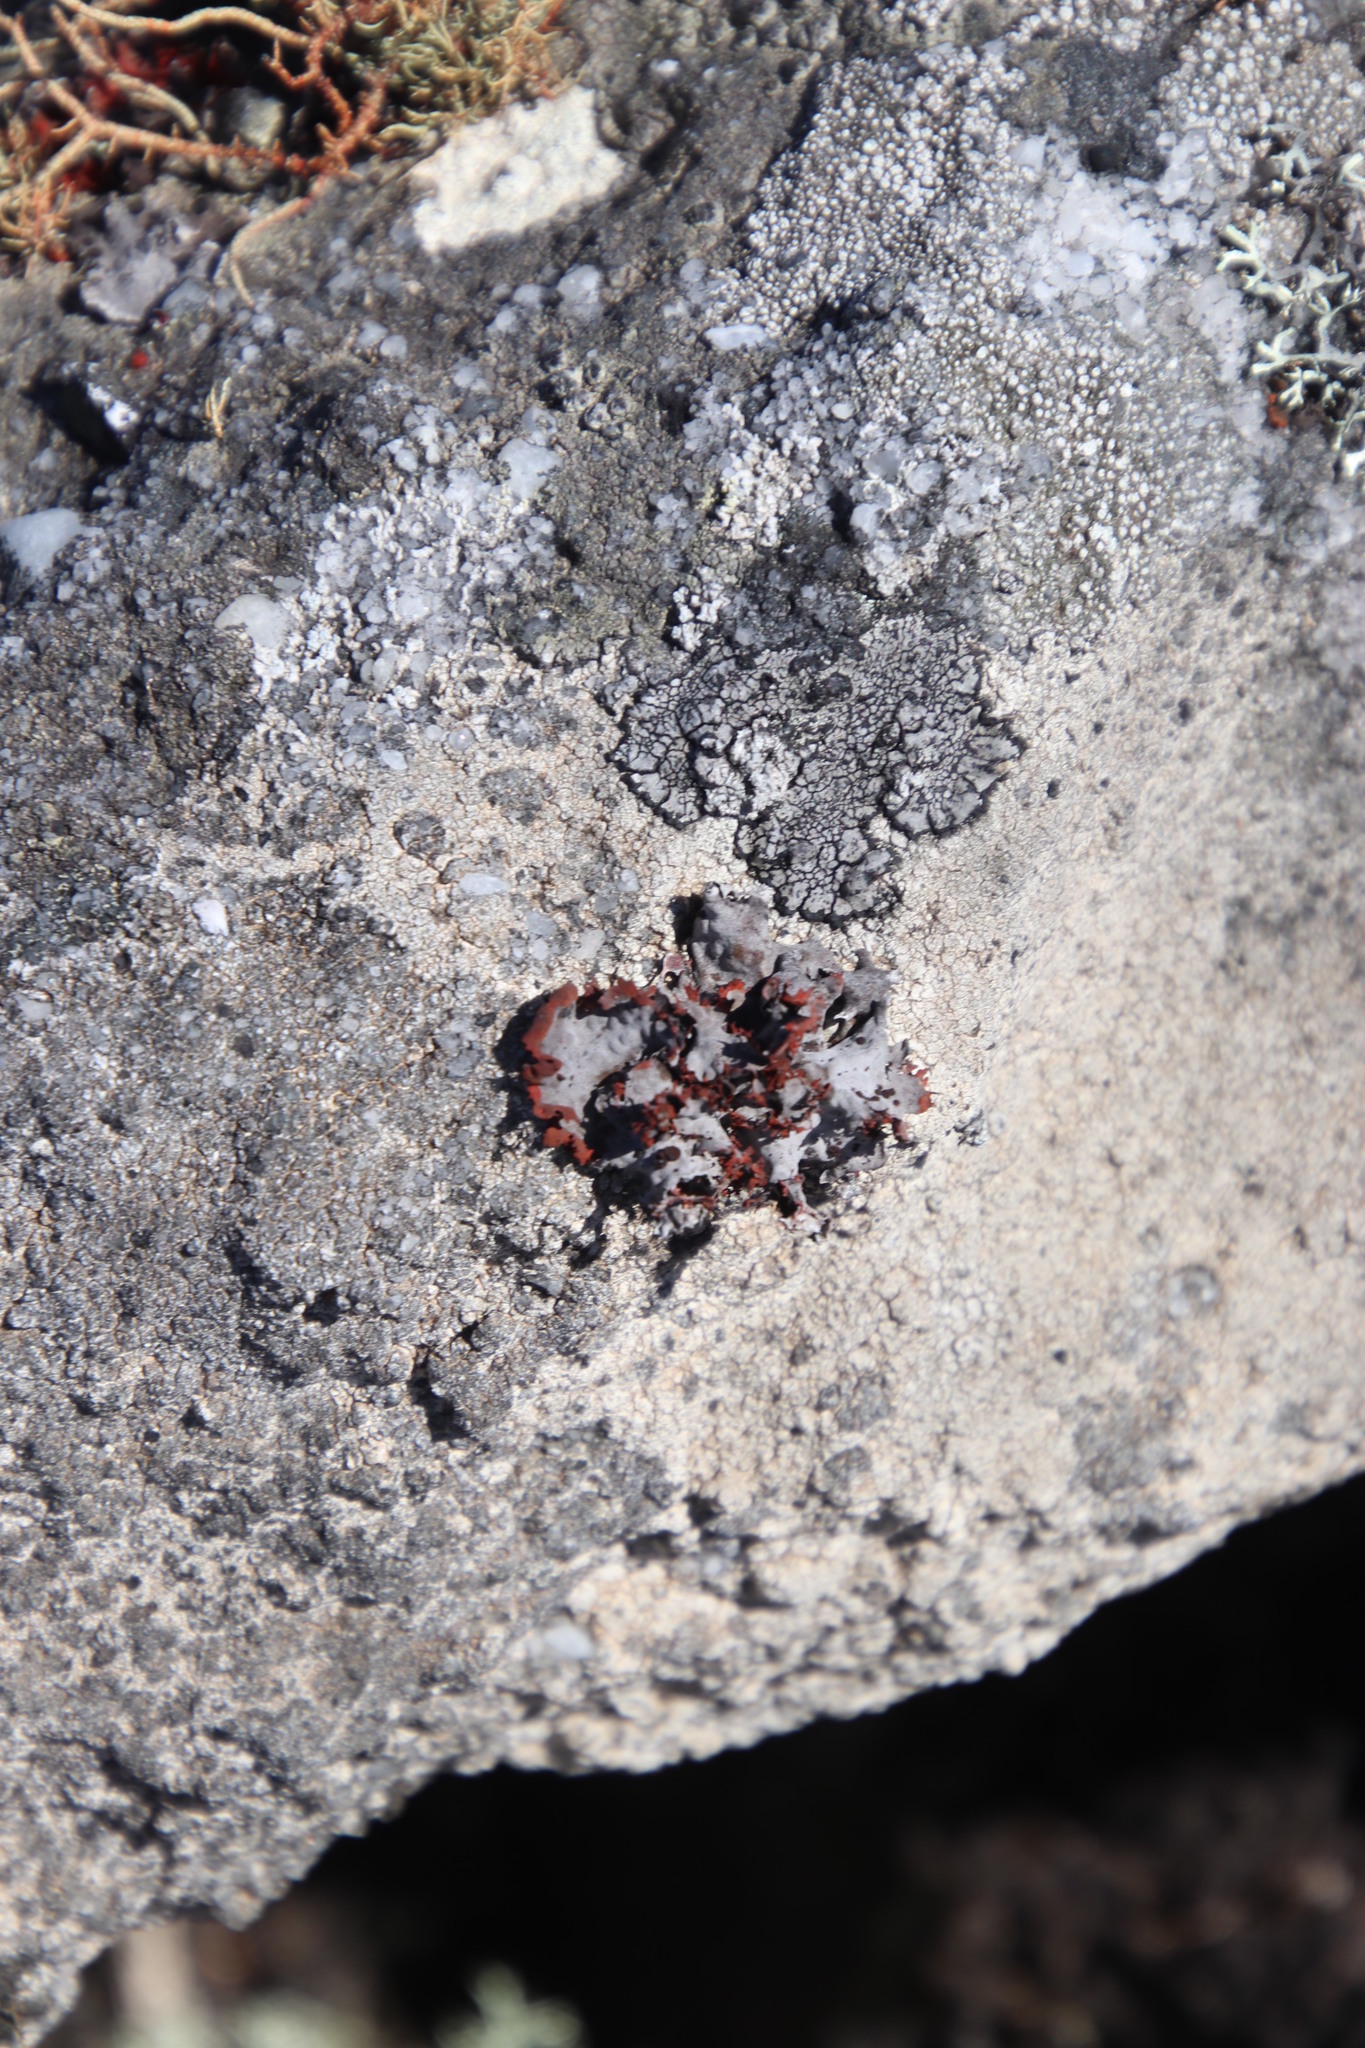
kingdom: Fungi
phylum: Ascomycota
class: Lecanoromycetes
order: Umbilicariales
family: Umbilicariaceae
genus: Lasallia
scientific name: Lasallia rubiginosa
